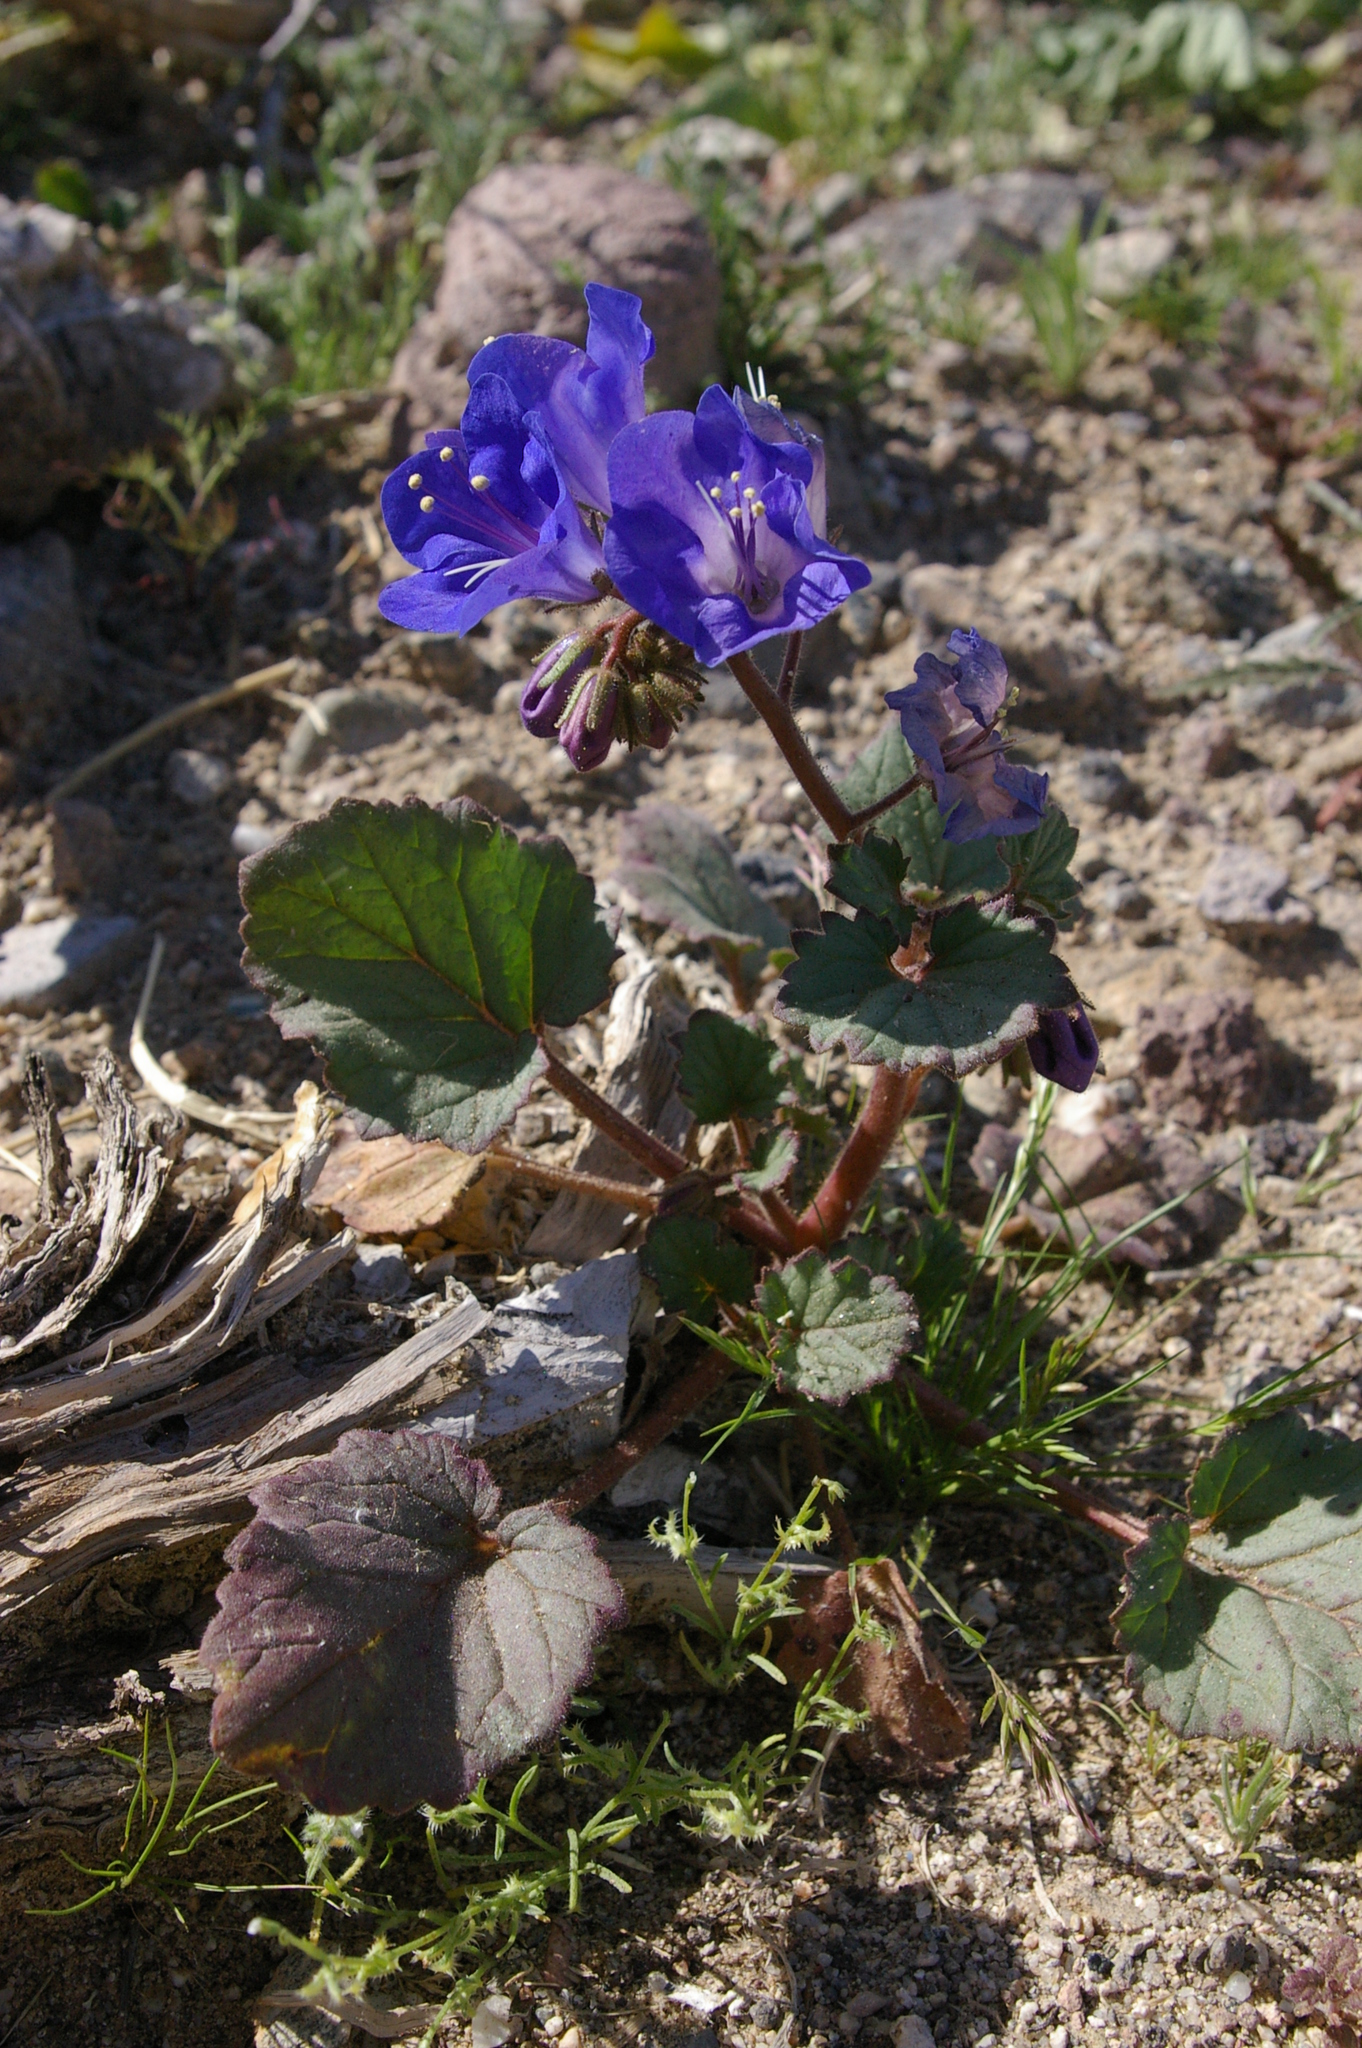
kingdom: Plantae
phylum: Tracheophyta
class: Magnoliopsida
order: Boraginales
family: Hydrophyllaceae
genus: Phacelia
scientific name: Phacelia campanularia
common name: California bluebell
